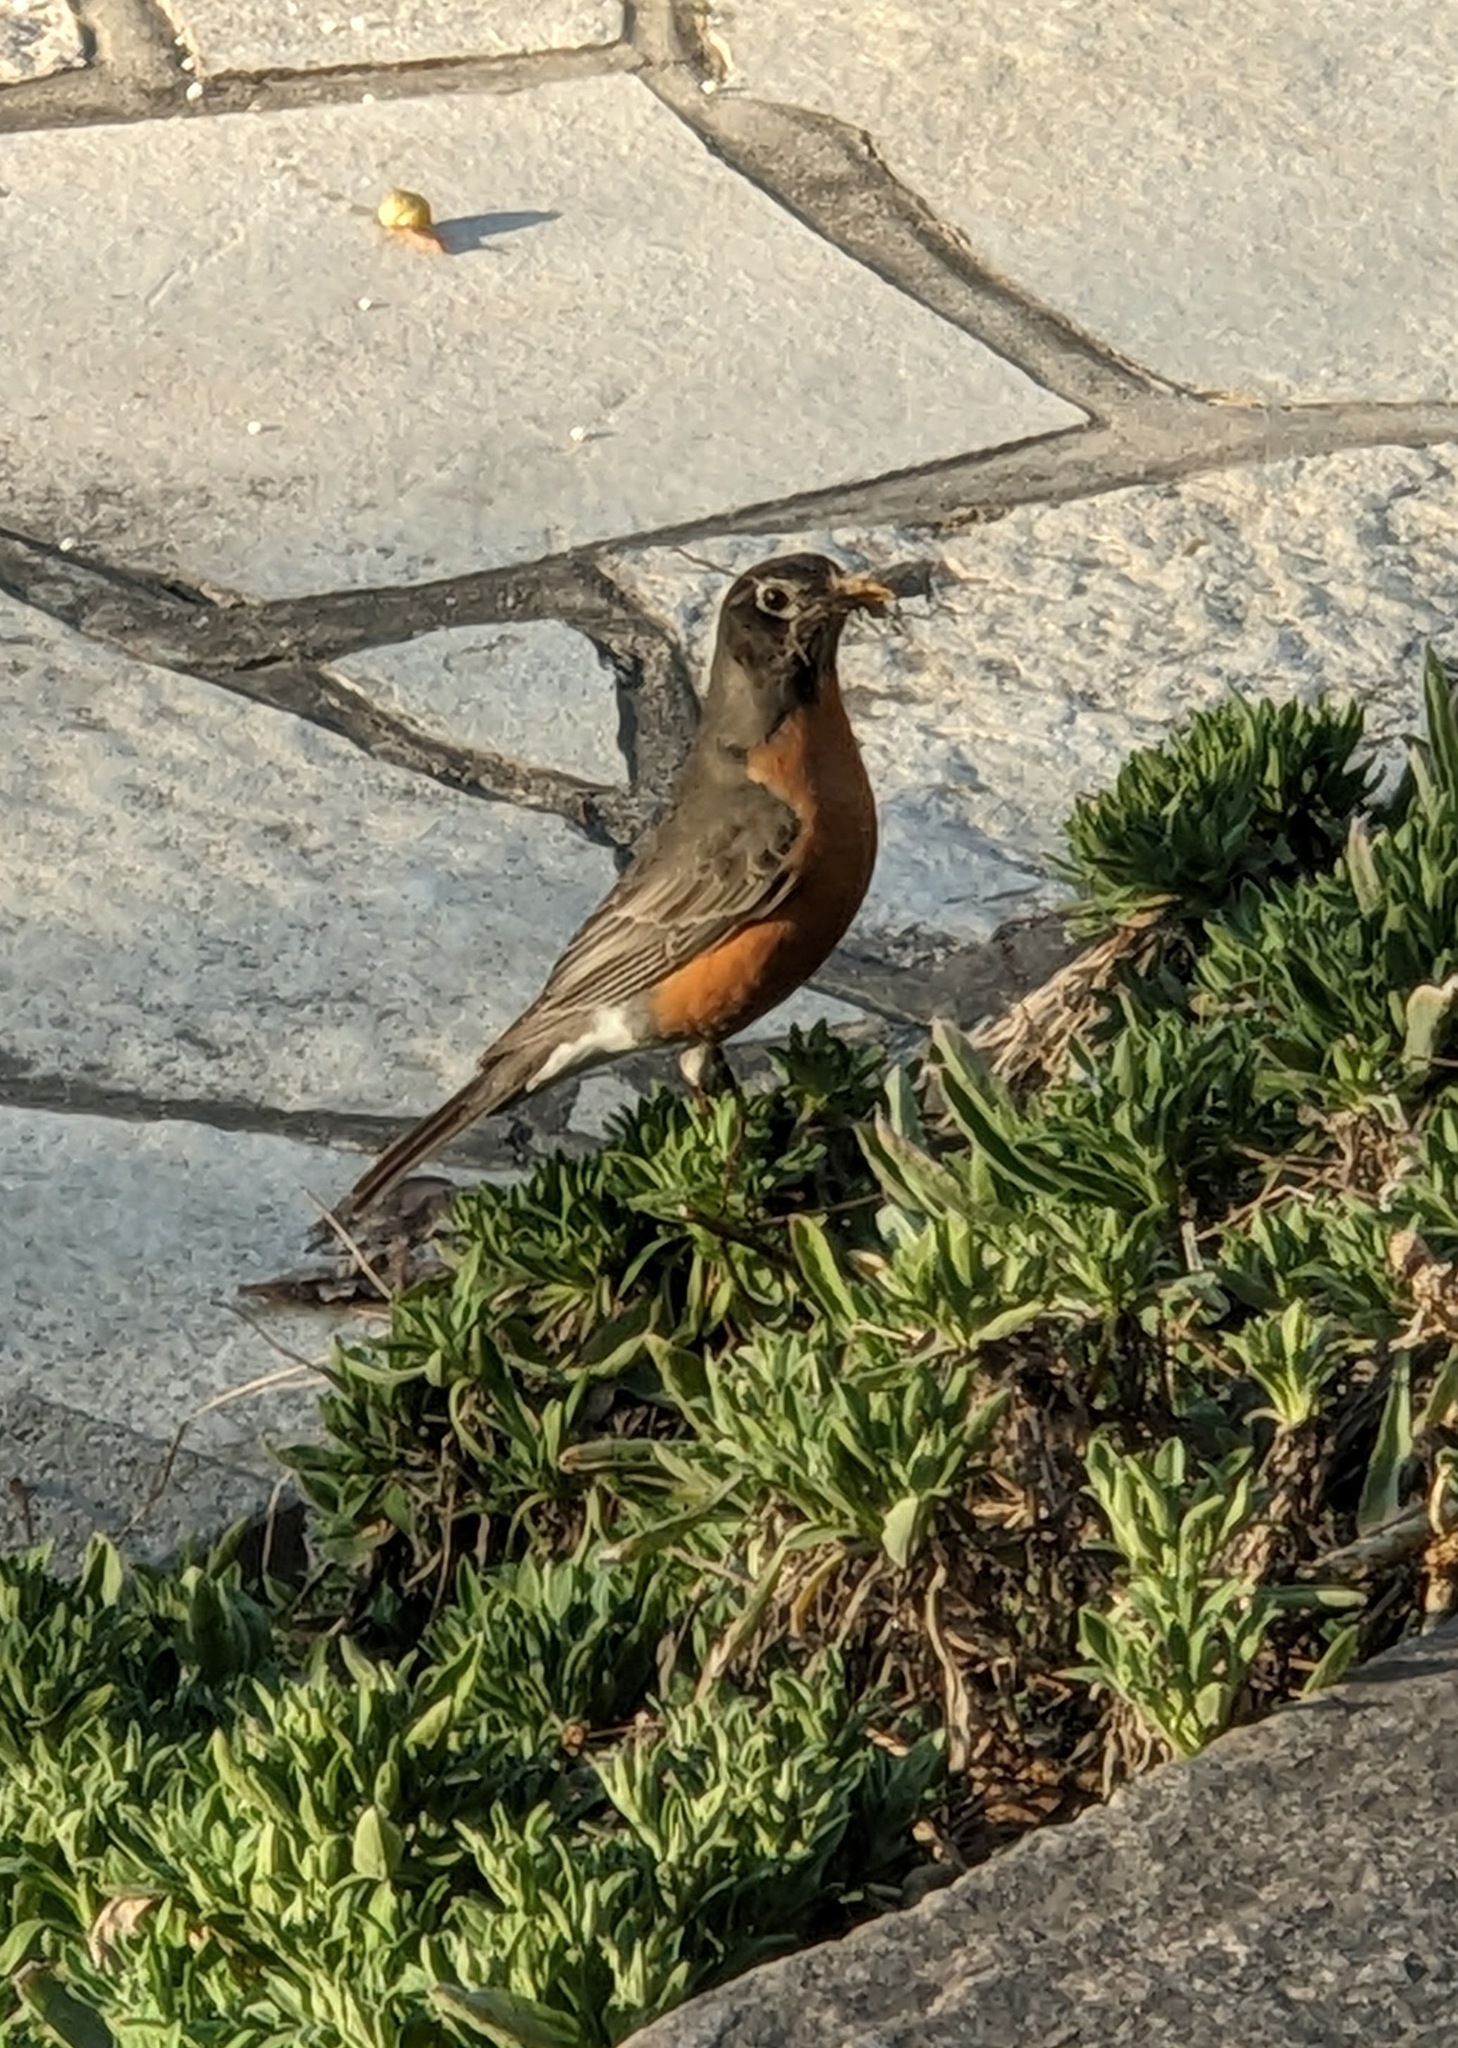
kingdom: Animalia
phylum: Chordata
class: Aves
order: Passeriformes
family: Turdidae
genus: Turdus
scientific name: Turdus migratorius
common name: American robin
